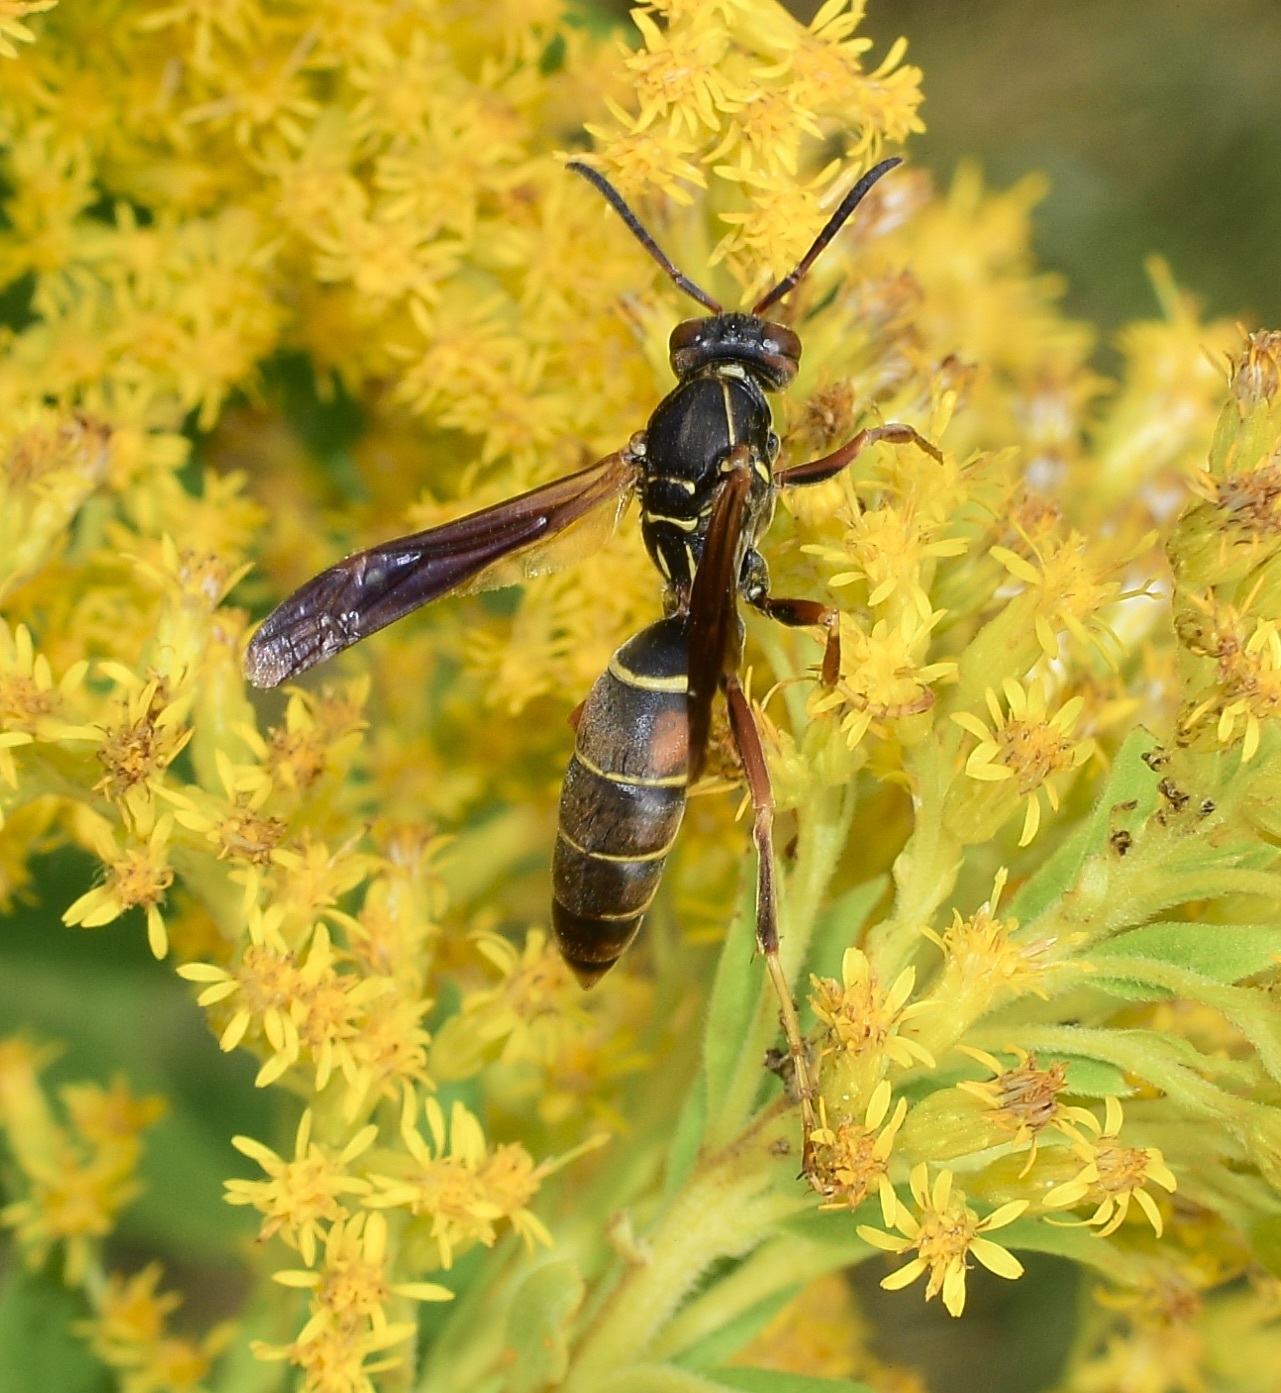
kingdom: Animalia
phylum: Arthropoda
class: Insecta
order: Hymenoptera
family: Eumenidae
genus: Polistes
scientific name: Polistes fuscatus
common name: Dark paper wasp
